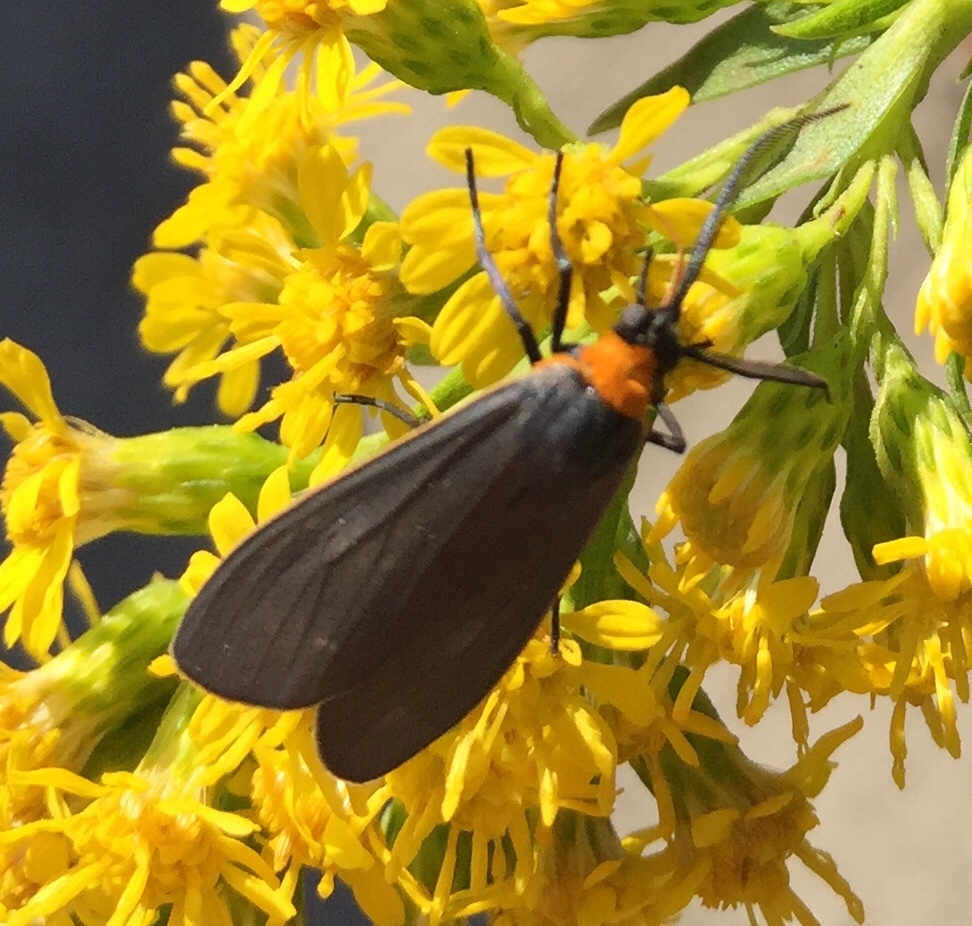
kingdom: Animalia
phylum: Arthropoda
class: Insecta
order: Lepidoptera
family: Erebidae
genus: Cisseps
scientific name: Cisseps fulvicollis
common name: Yellow-collared scape moth
